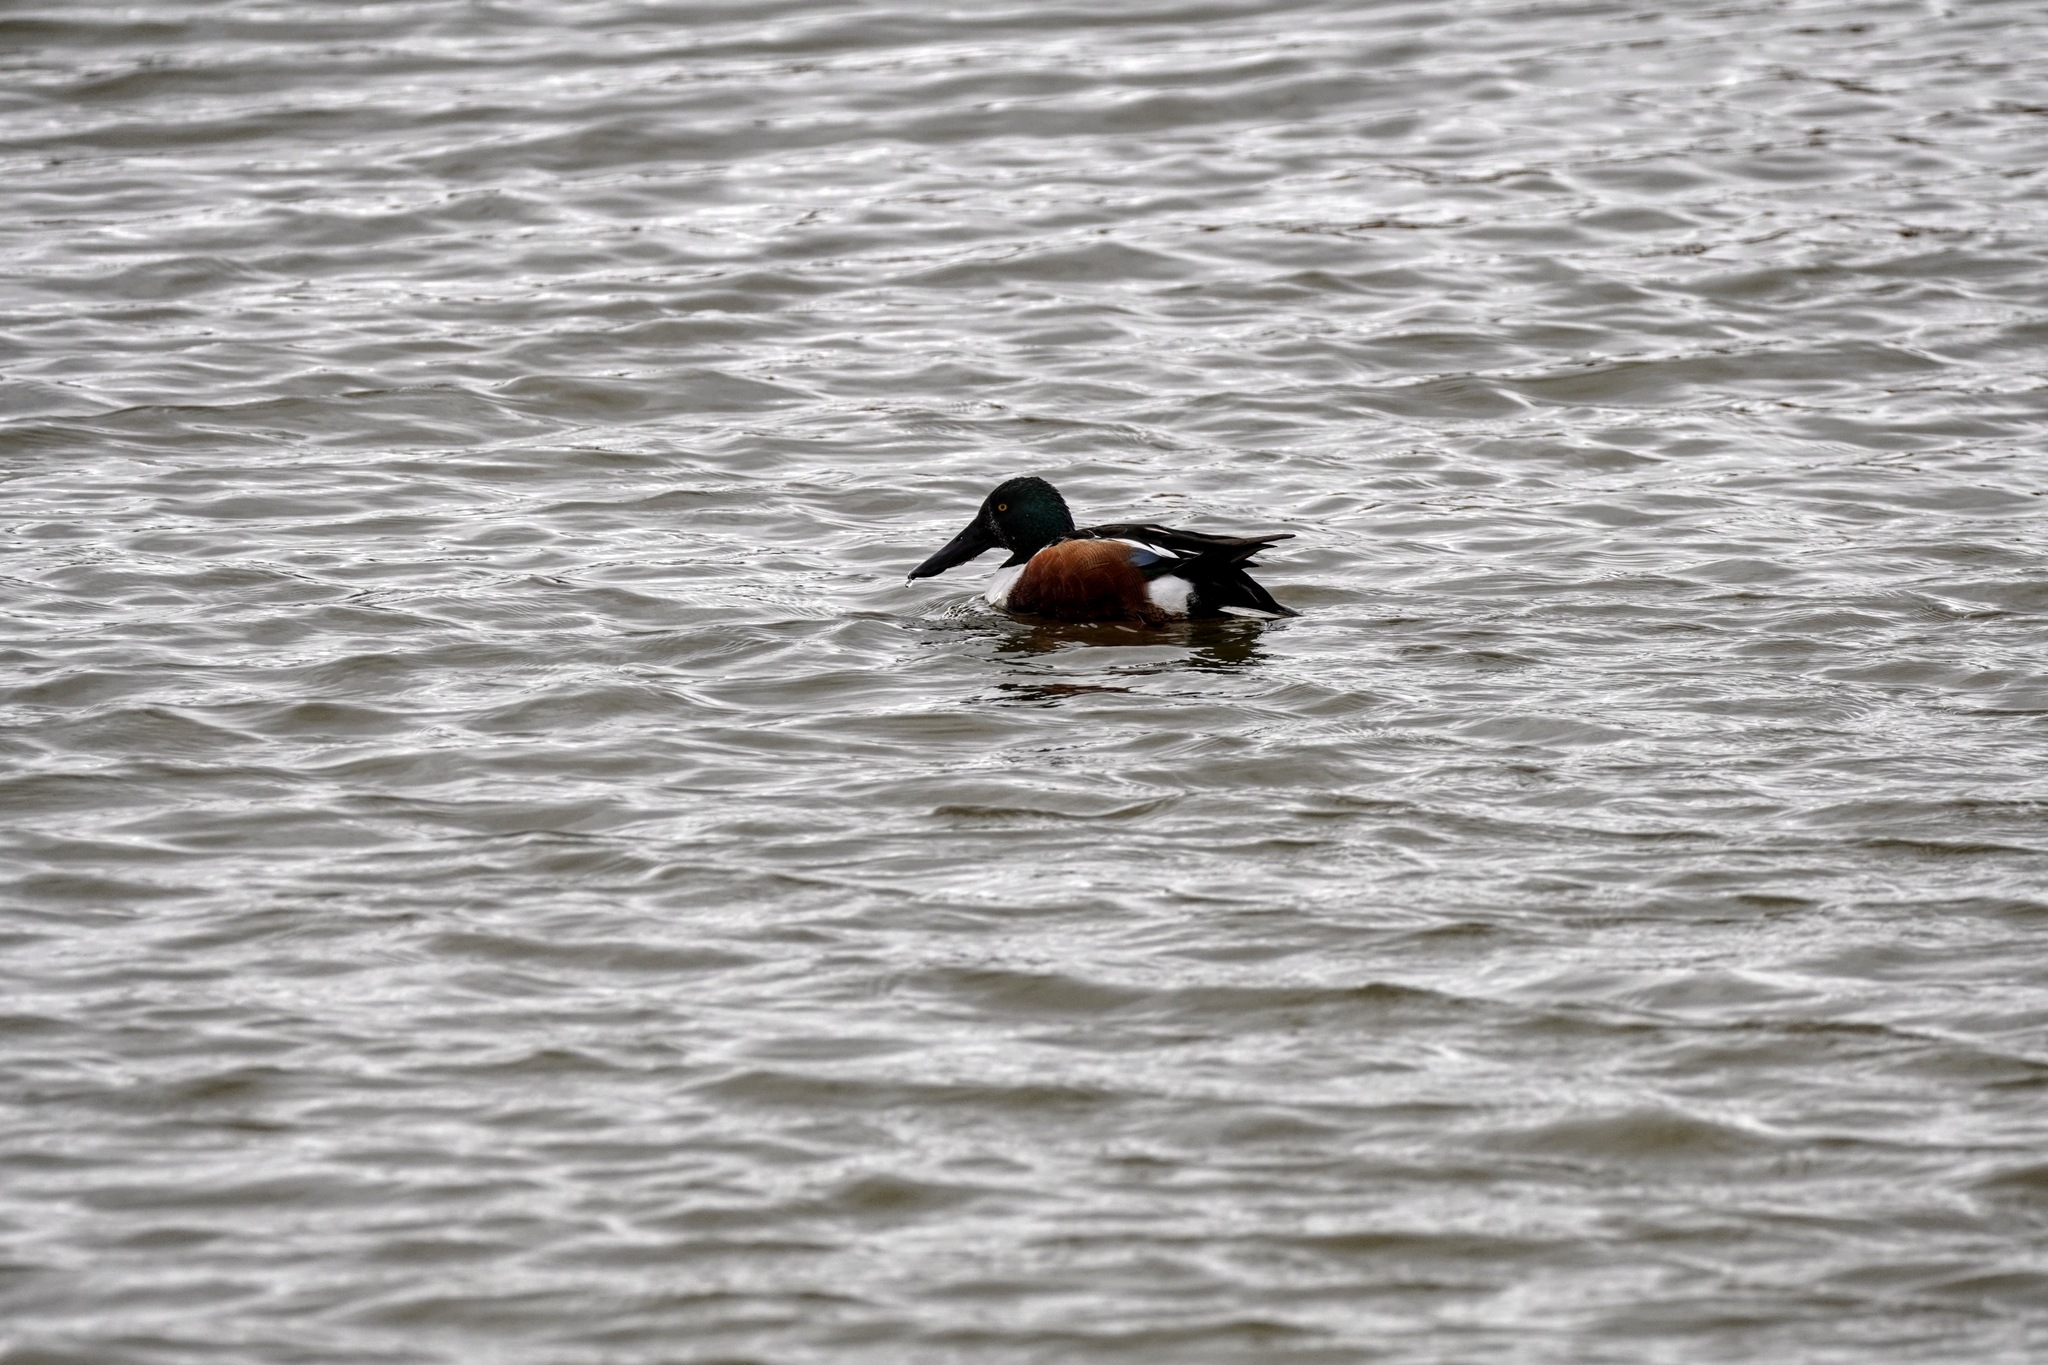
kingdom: Animalia
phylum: Chordata
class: Aves
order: Anseriformes
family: Anatidae
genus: Spatula
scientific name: Spatula clypeata
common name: Northern shoveler
